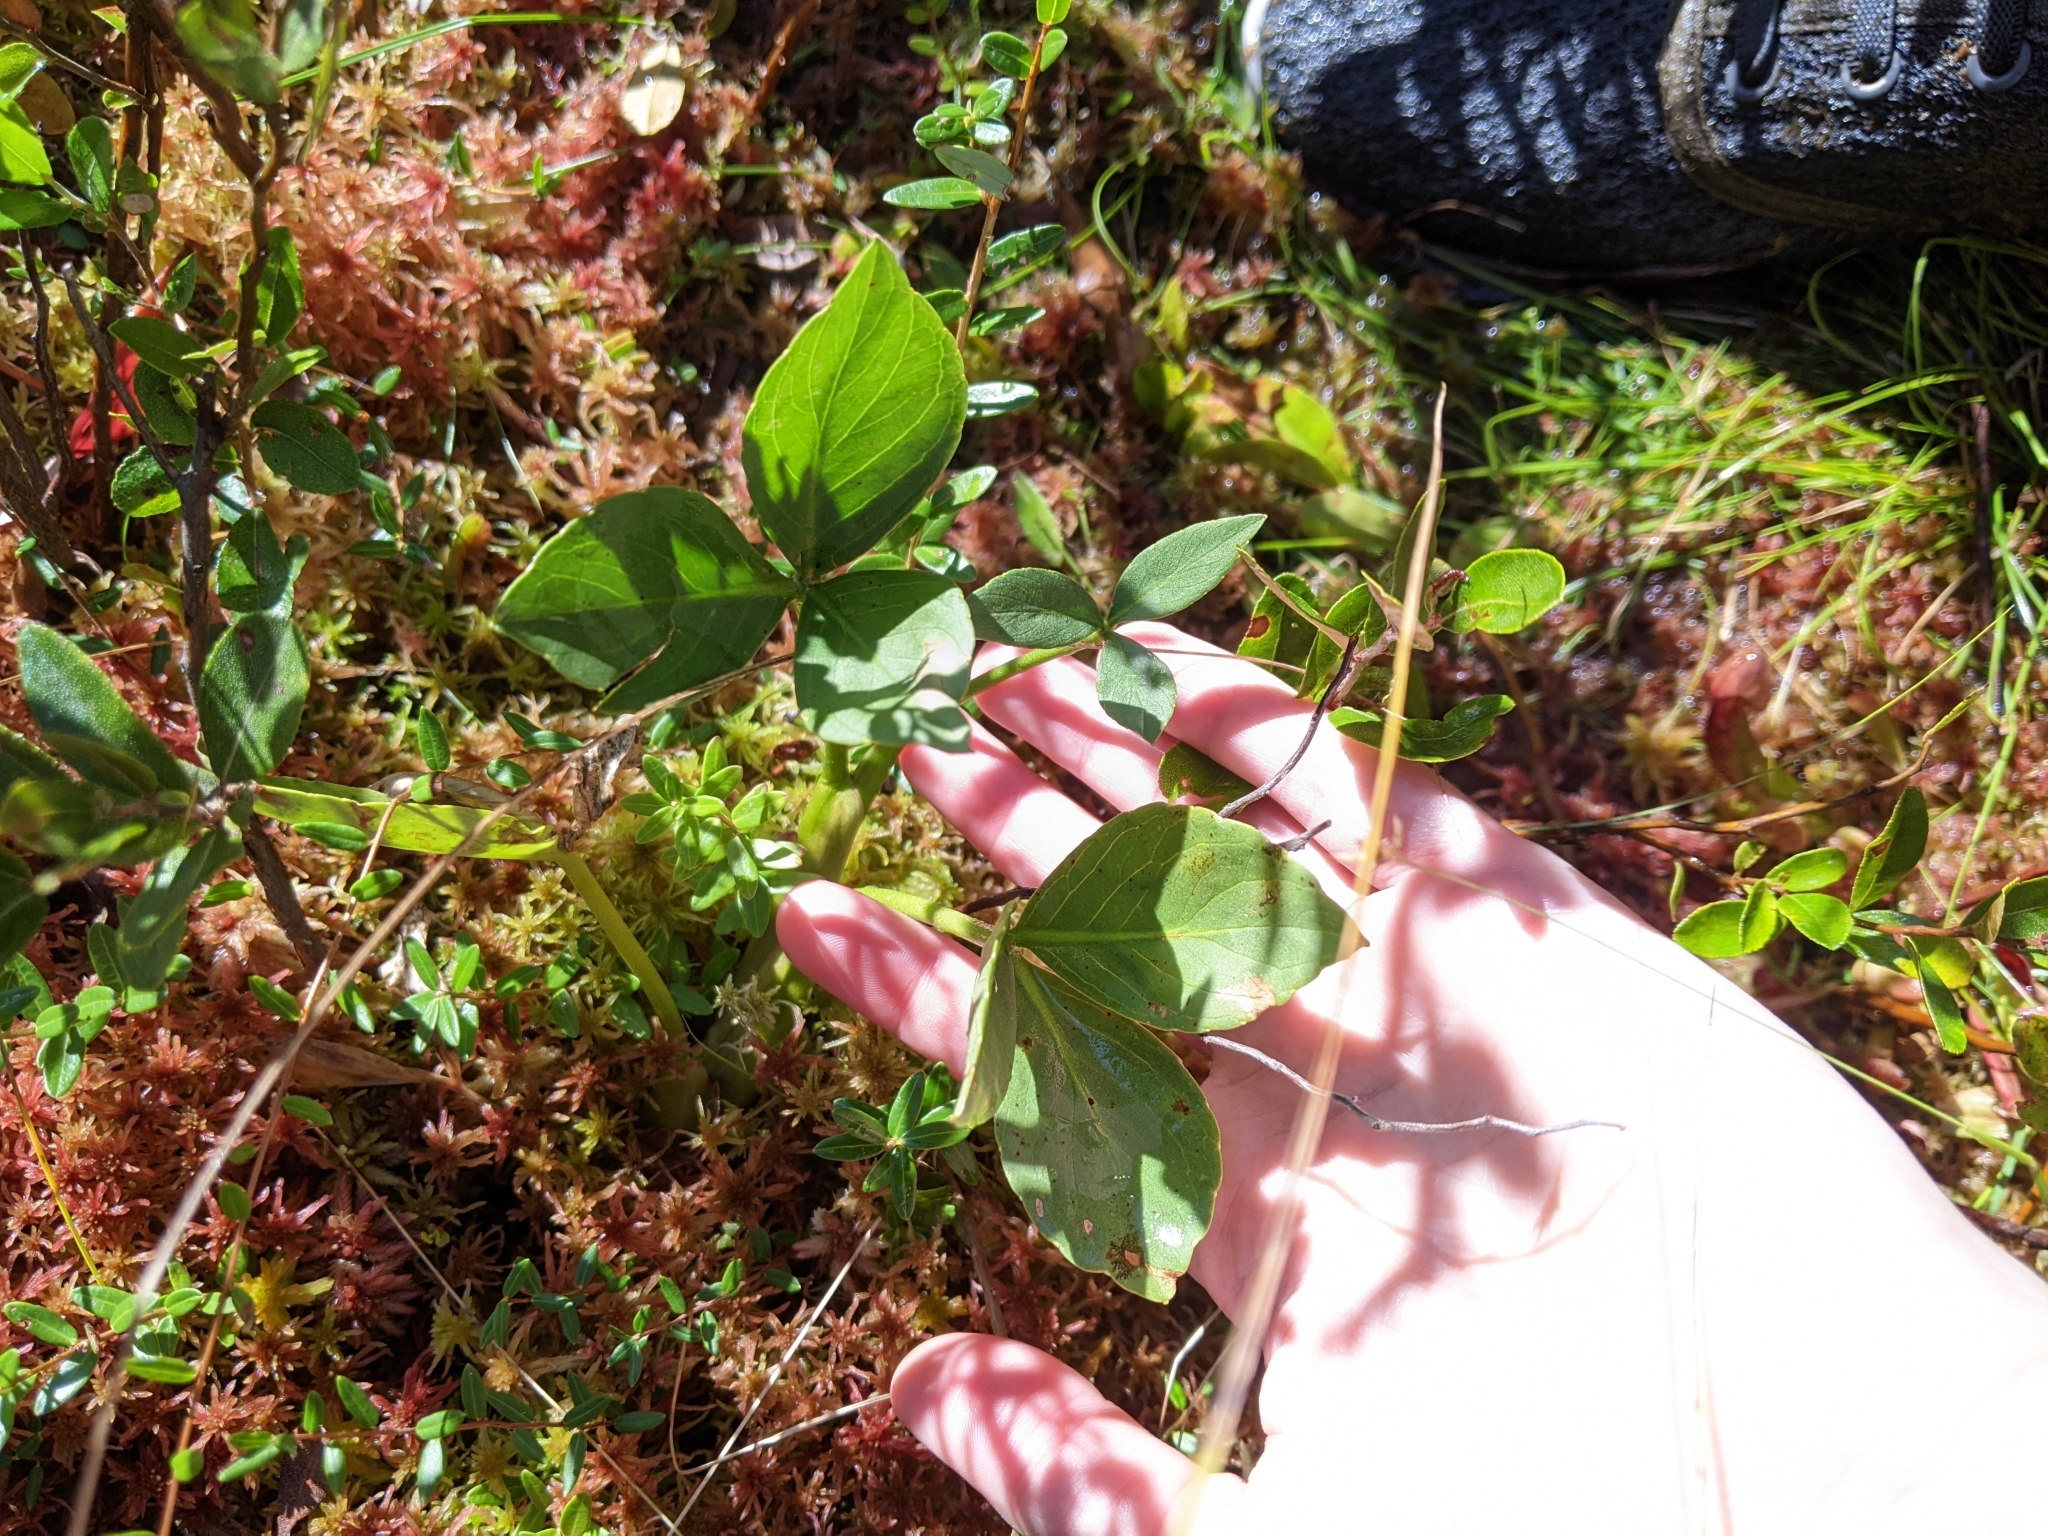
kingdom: Plantae
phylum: Tracheophyta
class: Magnoliopsida
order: Asterales
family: Menyanthaceae
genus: Menyanthes
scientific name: Menyanthes trifoliata
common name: Bogbean
